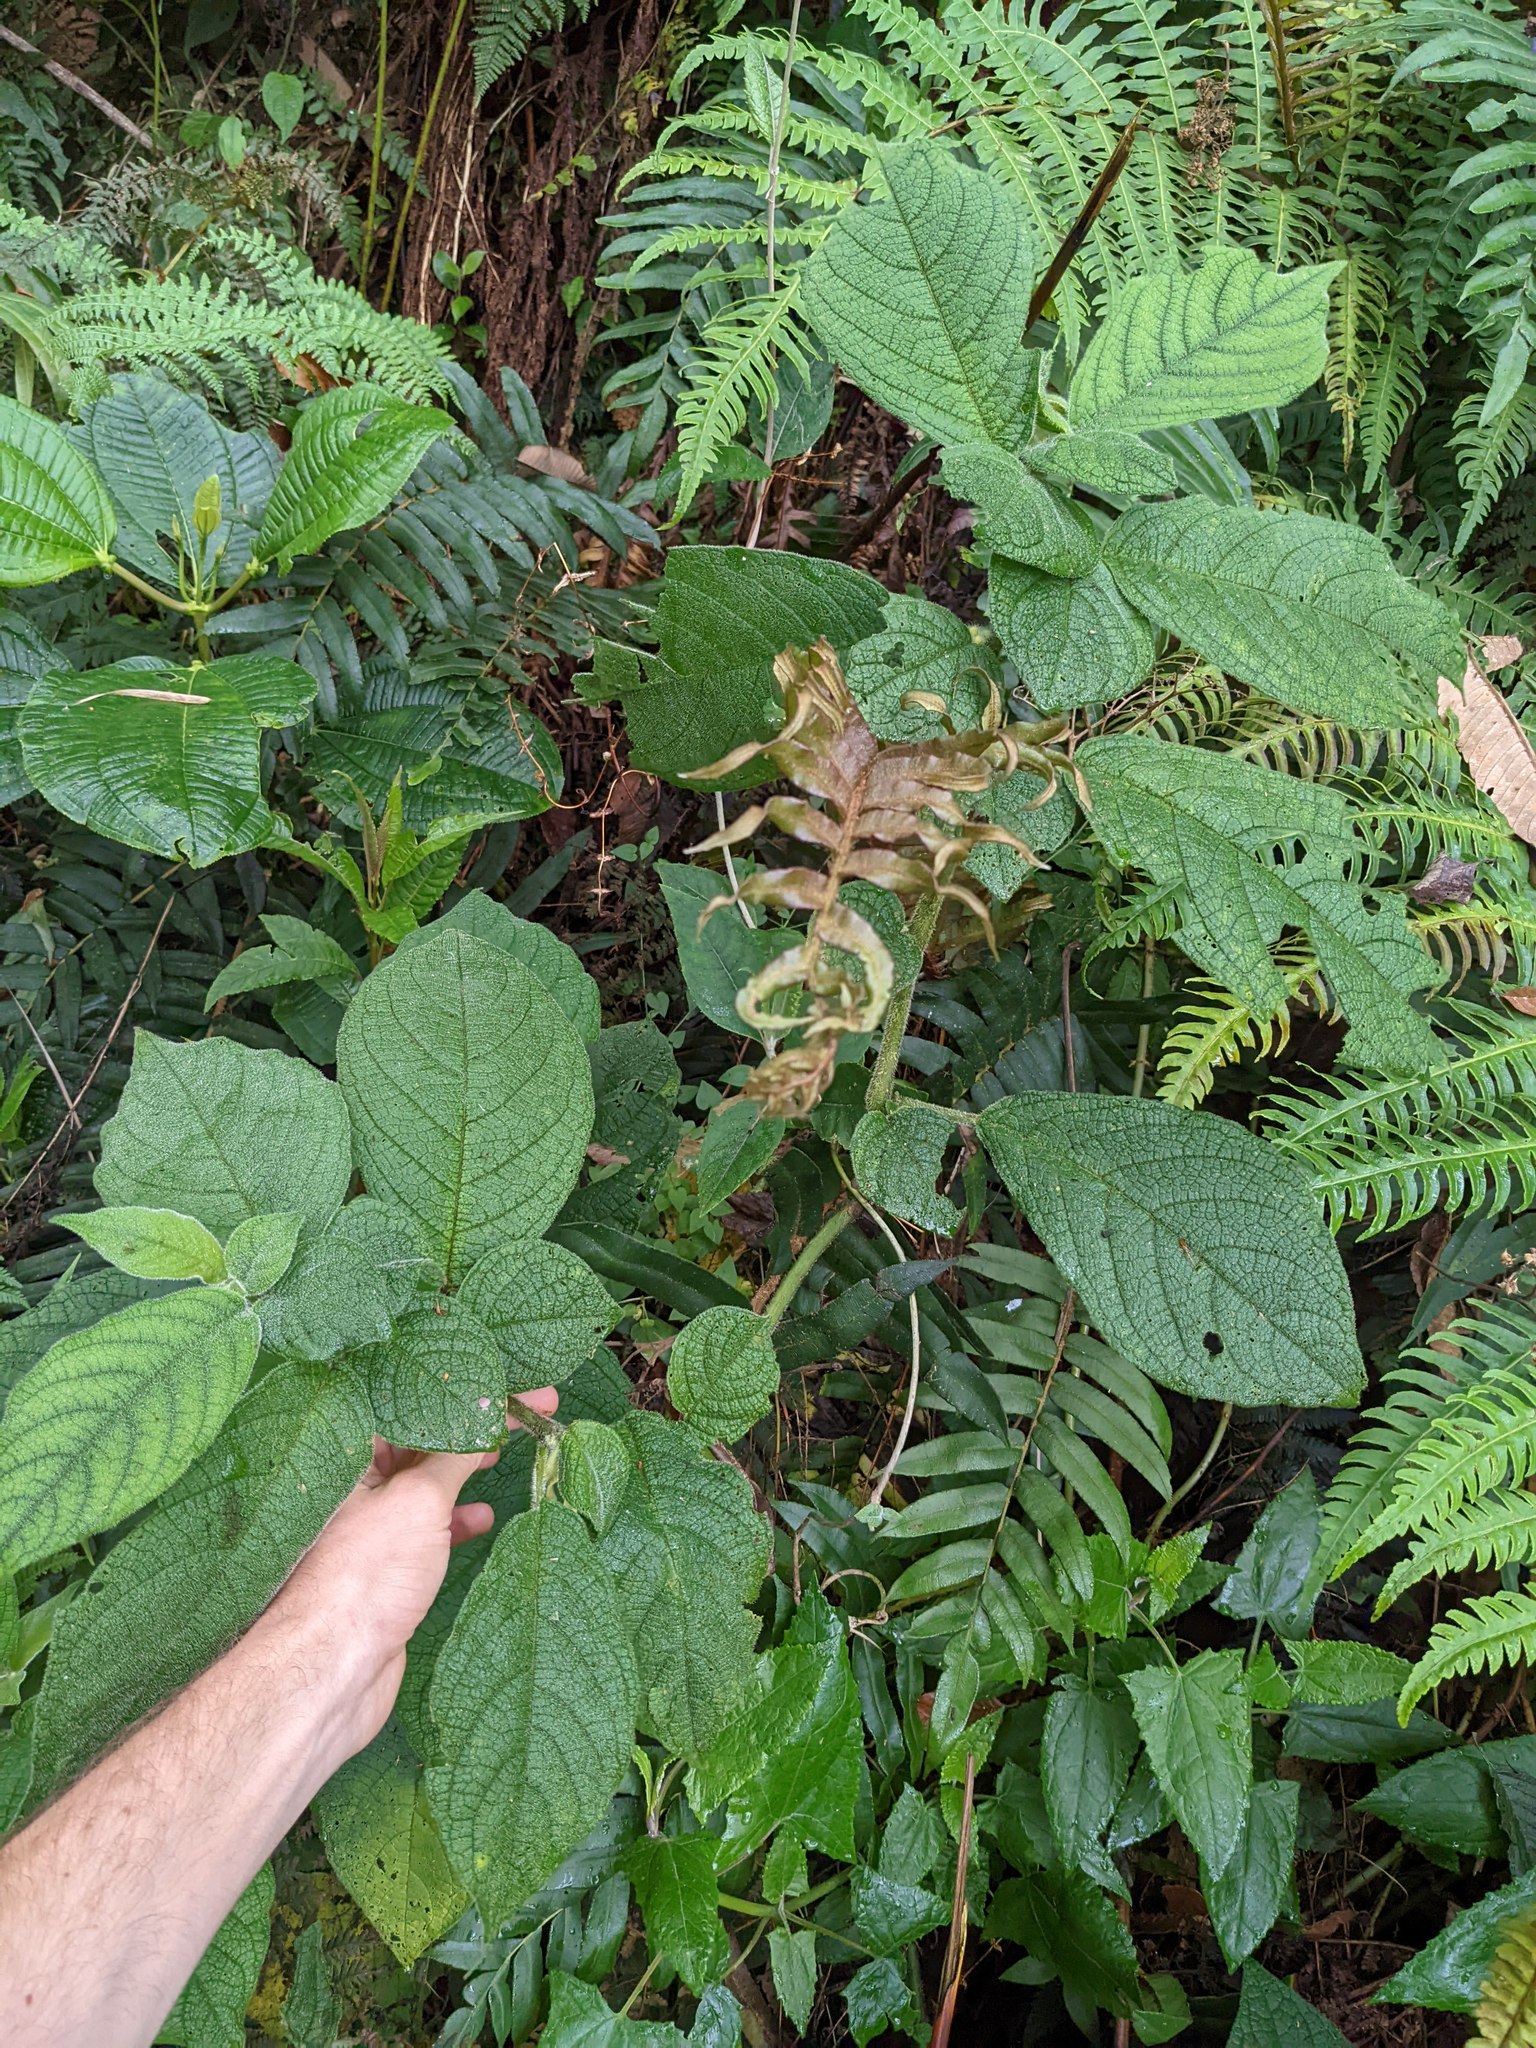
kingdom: Plantae
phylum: Tracheophyta
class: Magnoliopsida
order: Solanales
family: Solanaceae
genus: Witheringia
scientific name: Witheringia maculata
